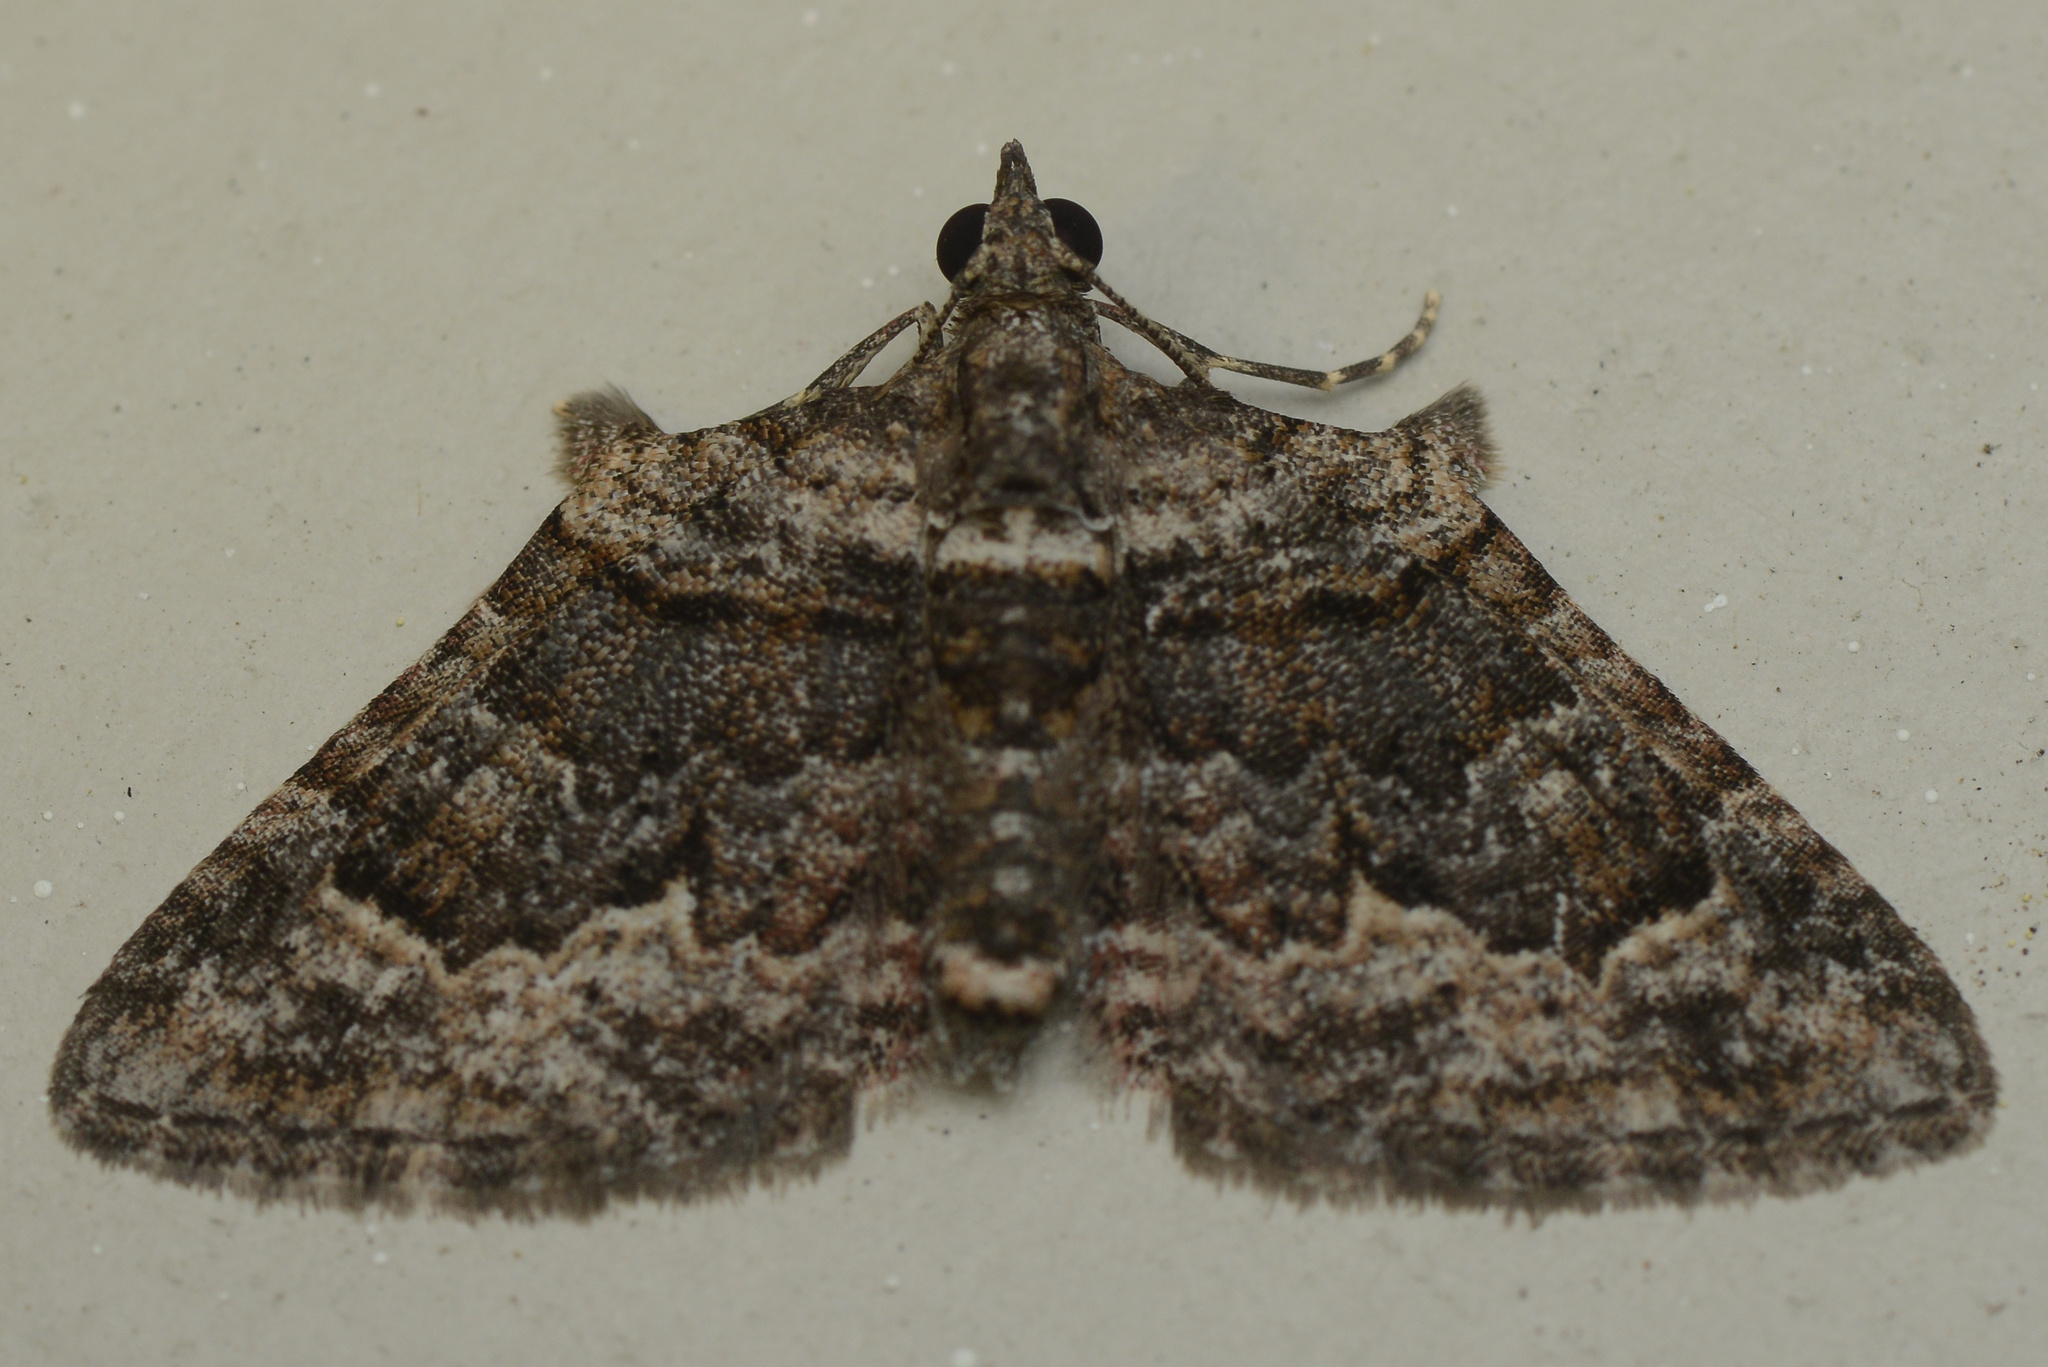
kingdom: Animalia
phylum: Arthropoda
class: Insecta
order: Lepidoptera
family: Geometridae
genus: Phrissogonus
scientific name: Phrissogonus laticostata
